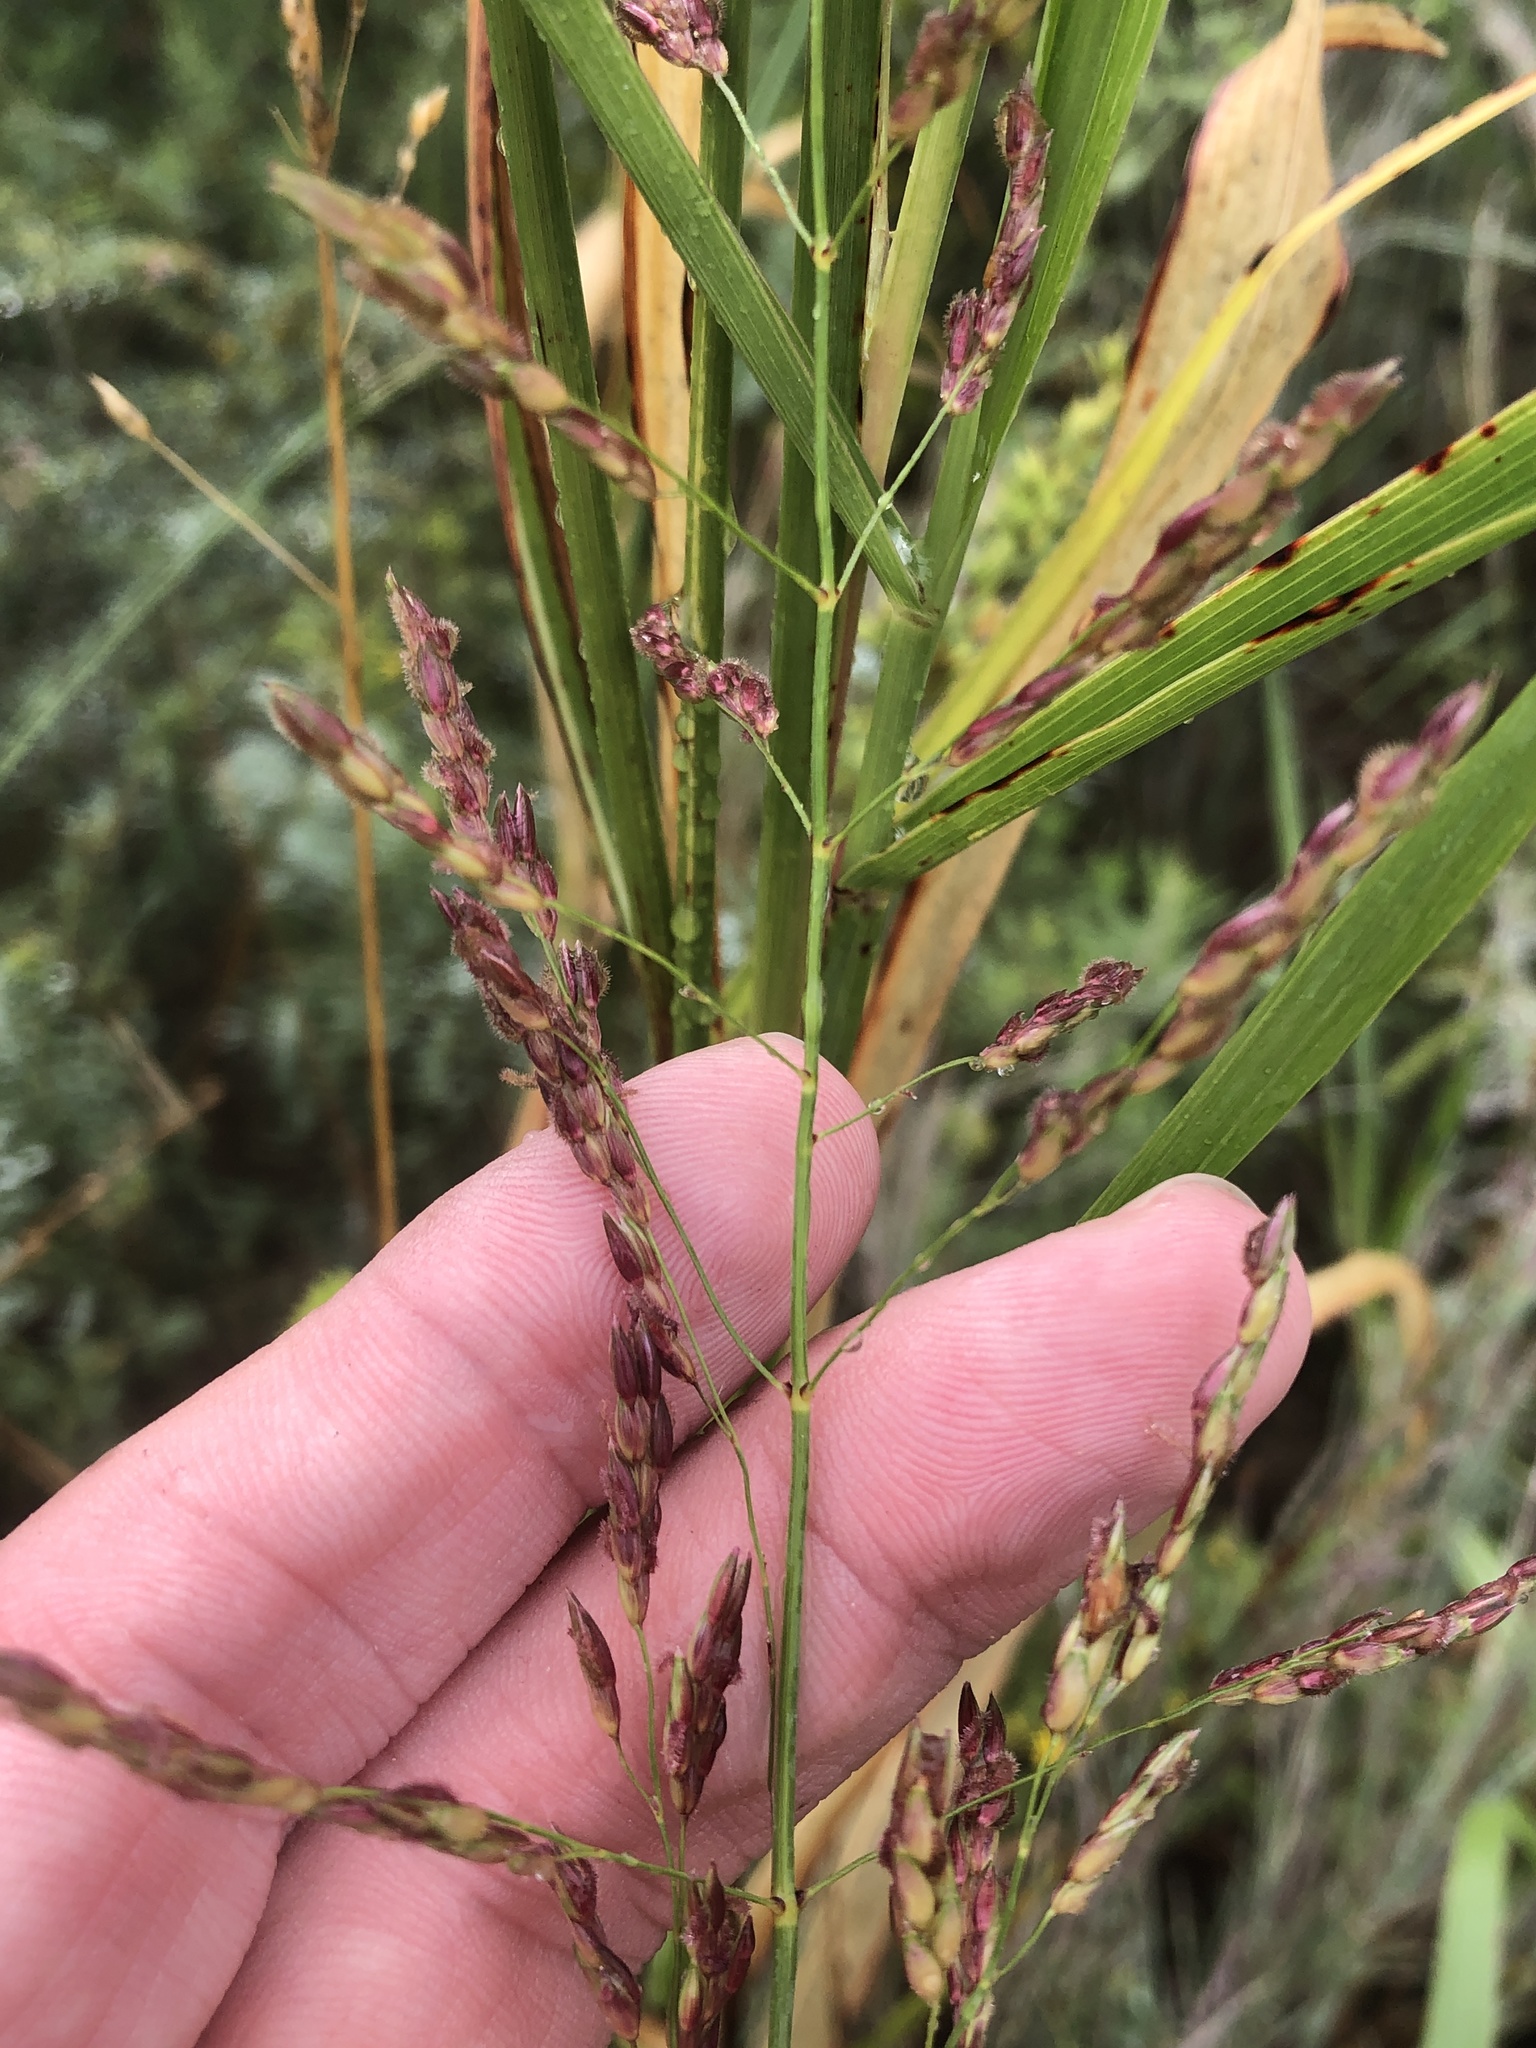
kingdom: Plantae
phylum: Tracheophyta
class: Liliopsida
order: Poales
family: Poaceae
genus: Sorghum
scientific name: Sorghum halepense
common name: Johnson-grass
